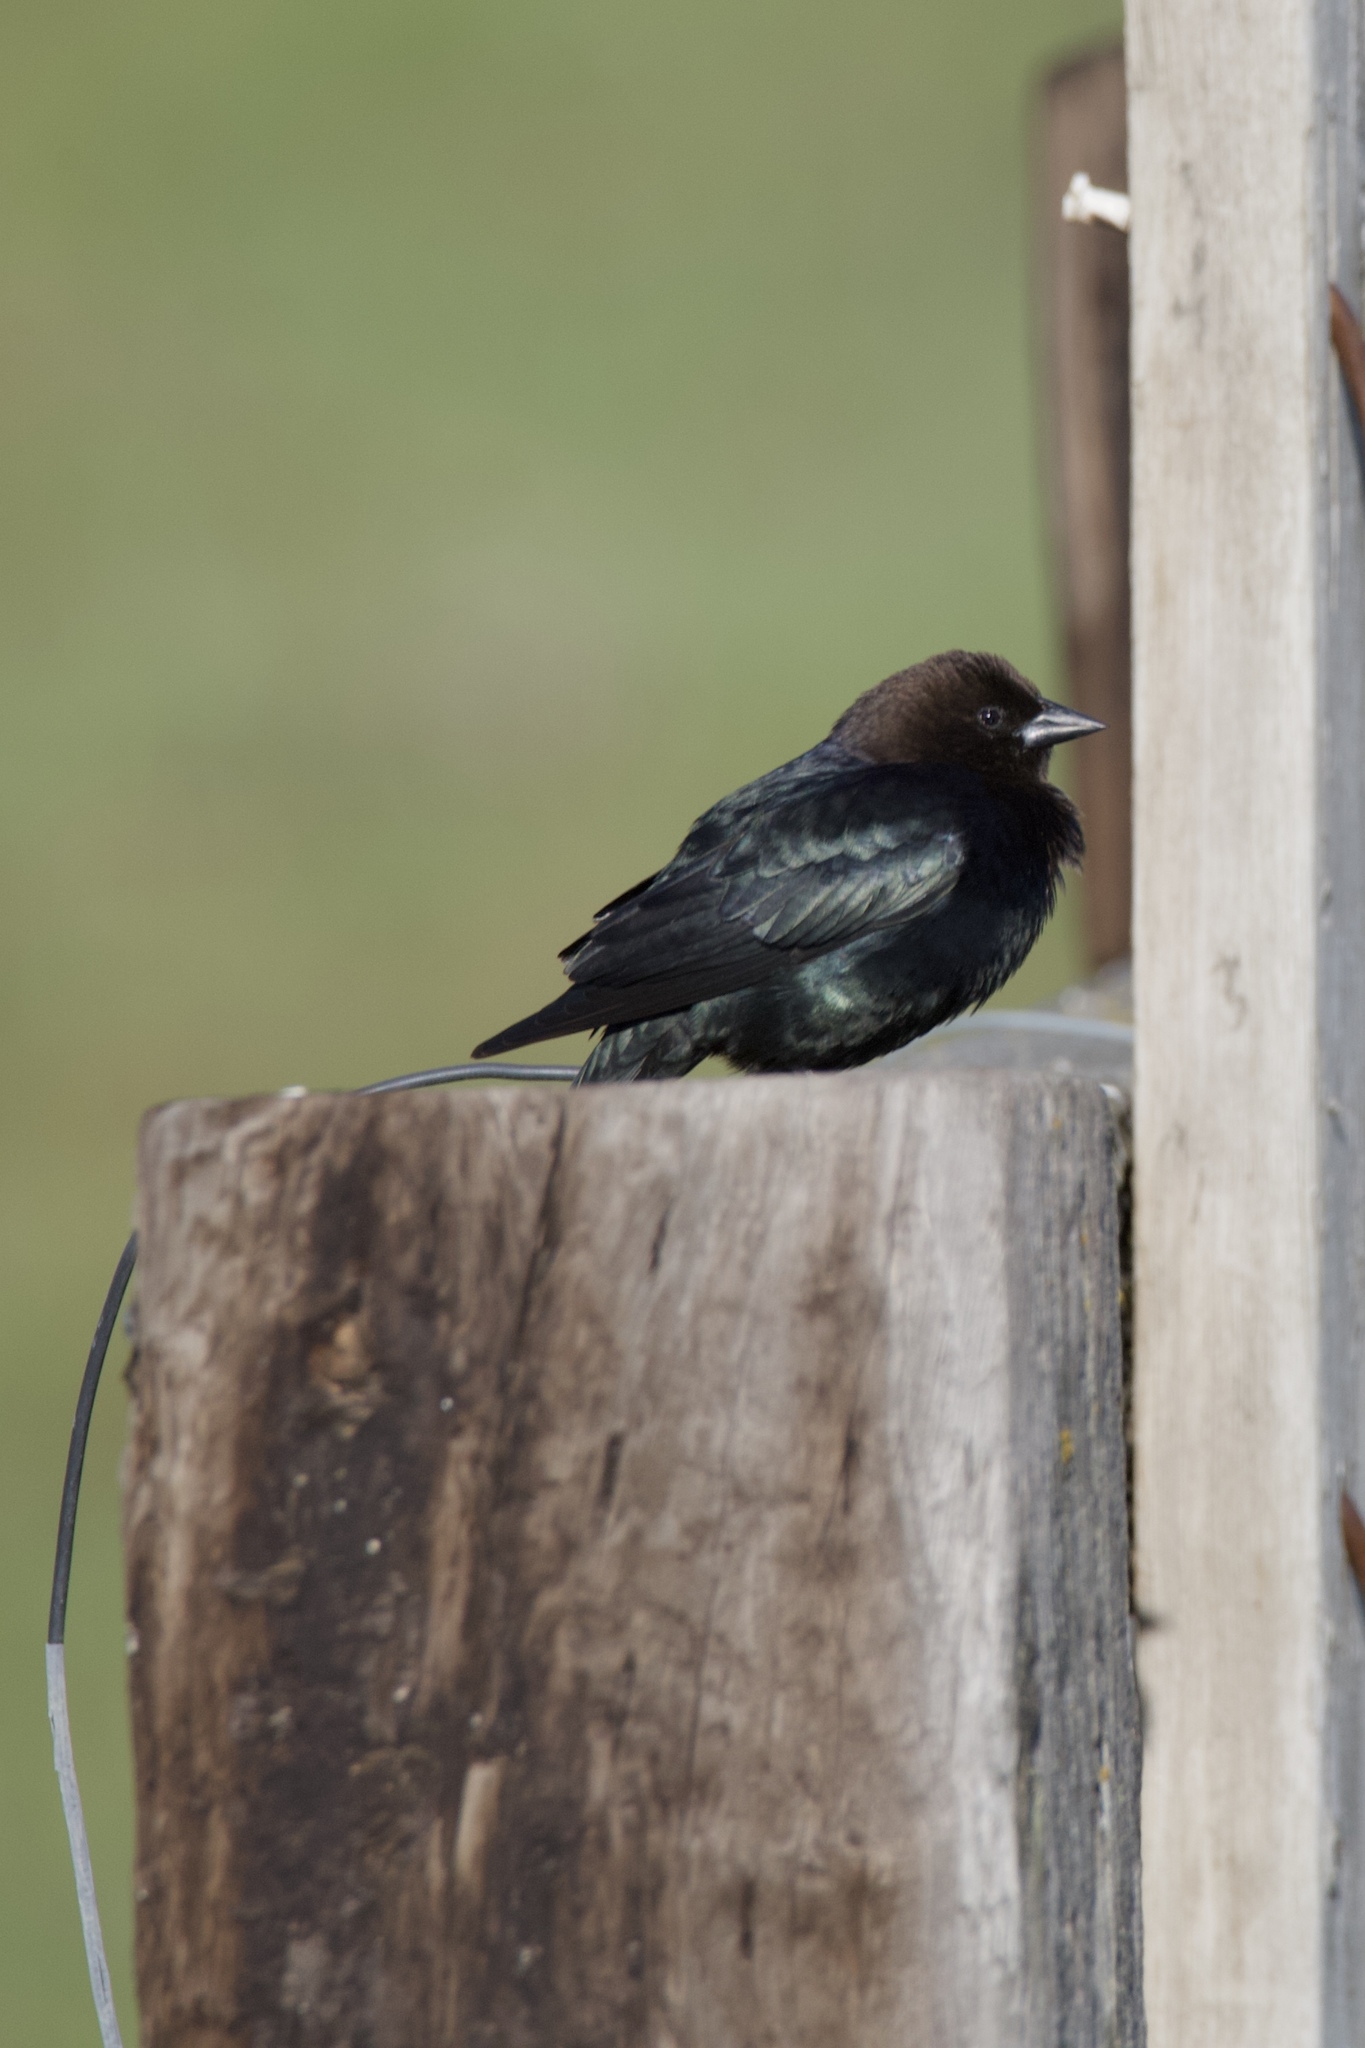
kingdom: Animalia
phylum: Chordata
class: Aves
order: Passeriformes
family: Icteridae
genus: Molothrus
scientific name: Molothrus ater
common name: Brown-headed cowbird
